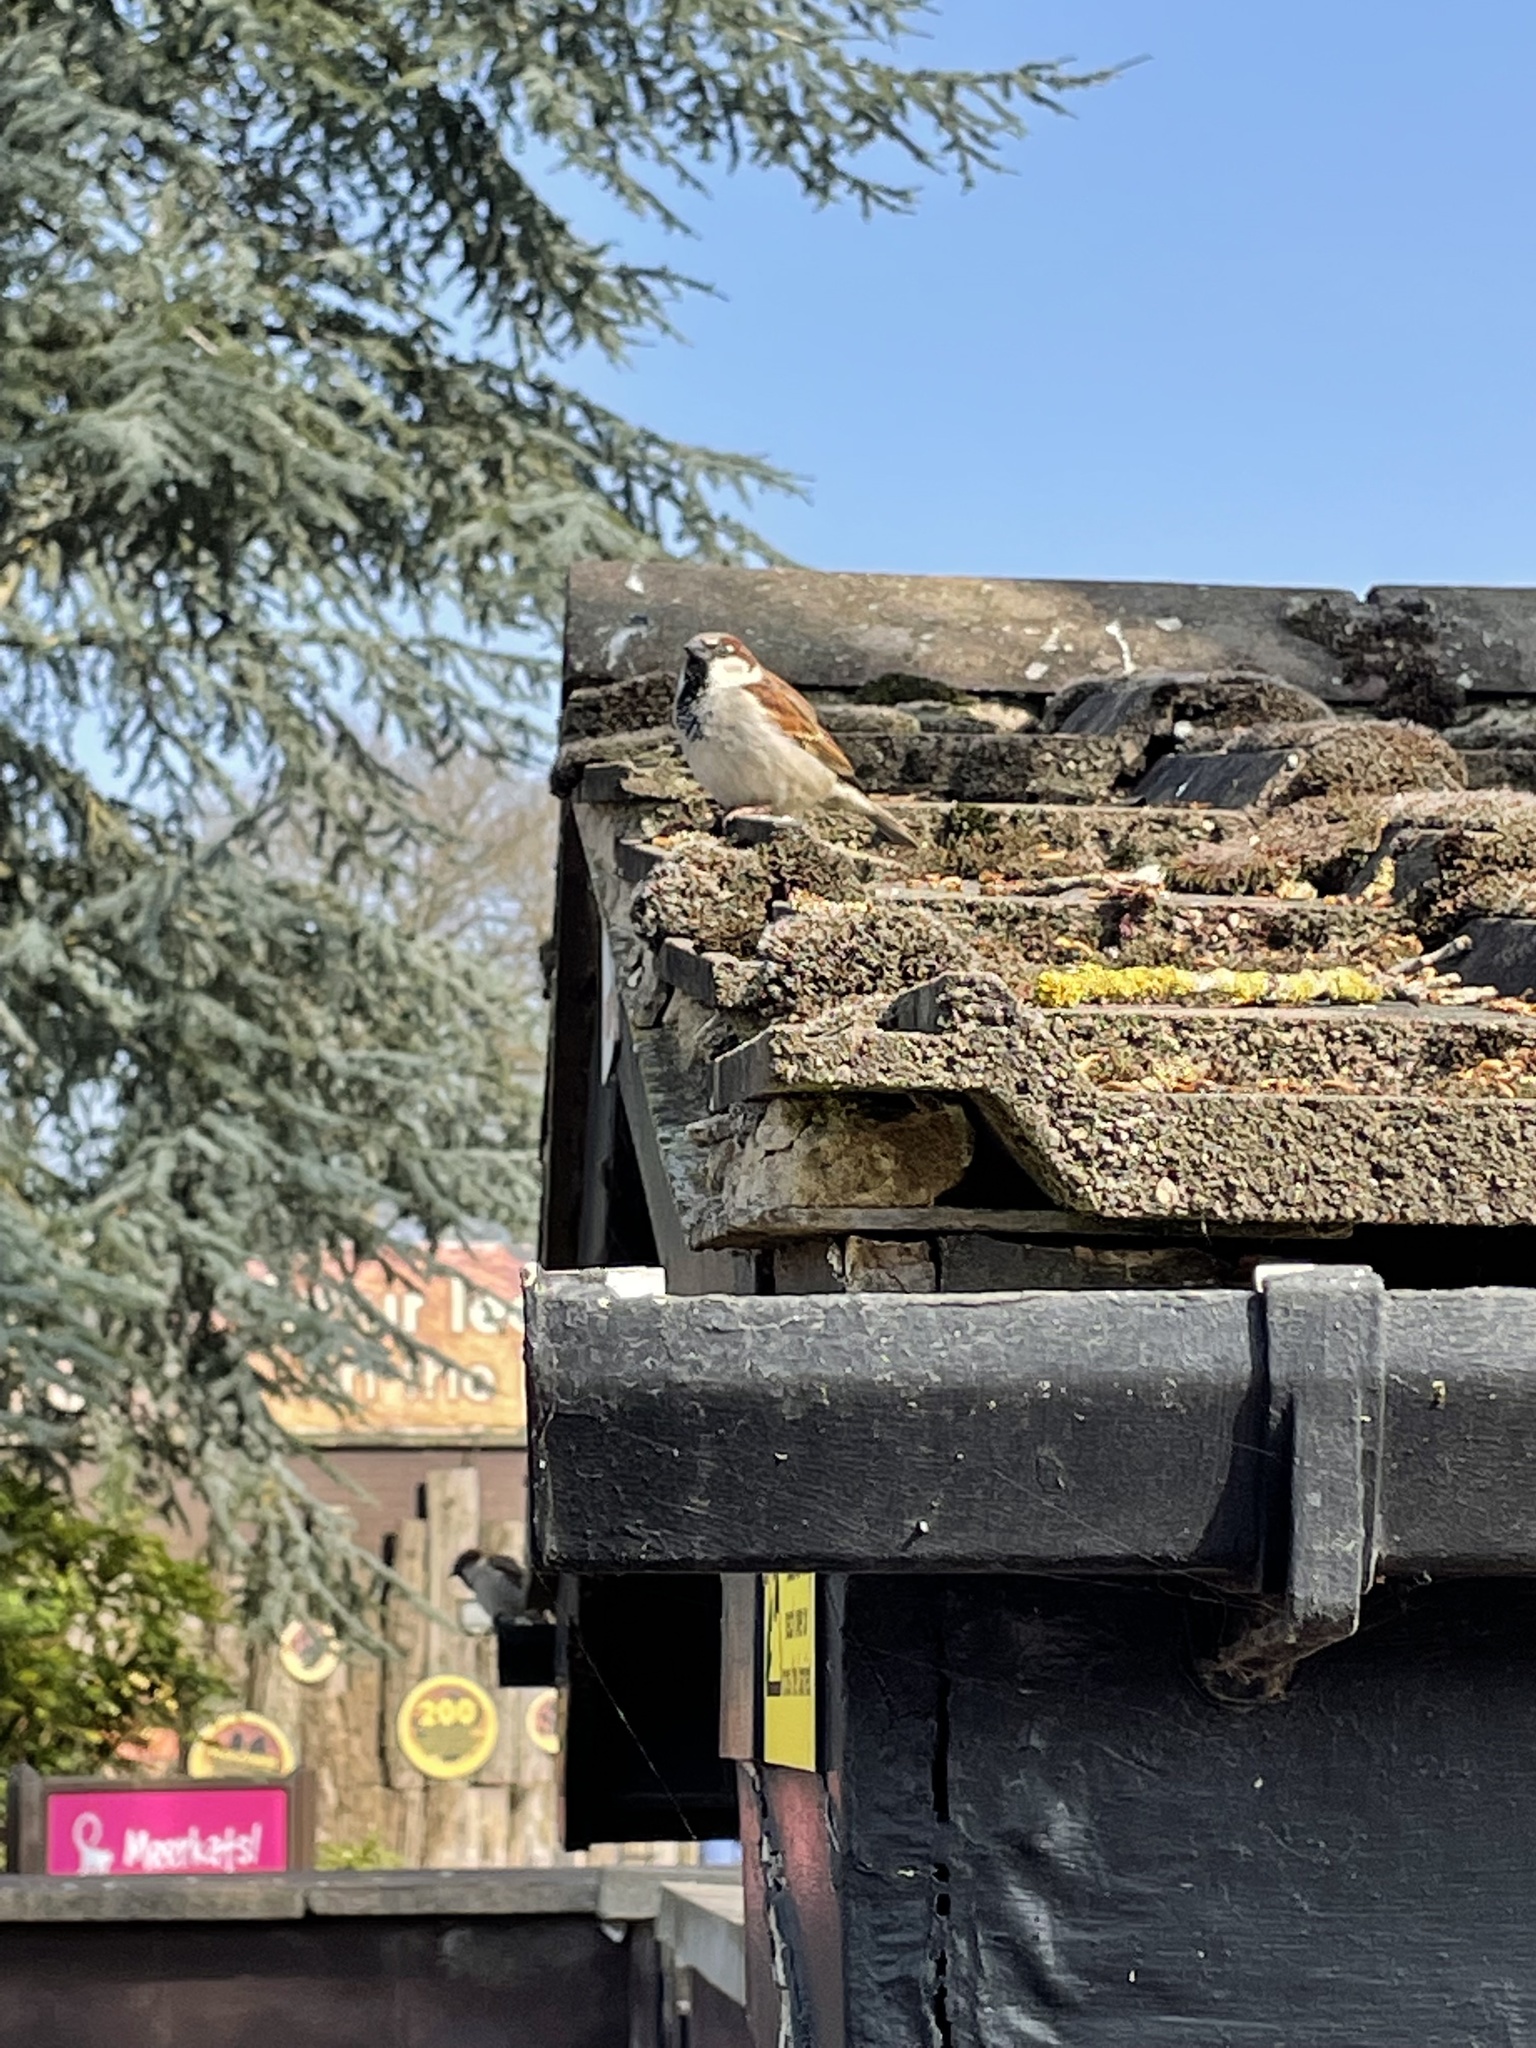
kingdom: Animalia
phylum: Chordata
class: Aves
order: Passeriformes
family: Passeridae
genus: Passer
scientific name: Passer domesticus
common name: House sparrow
